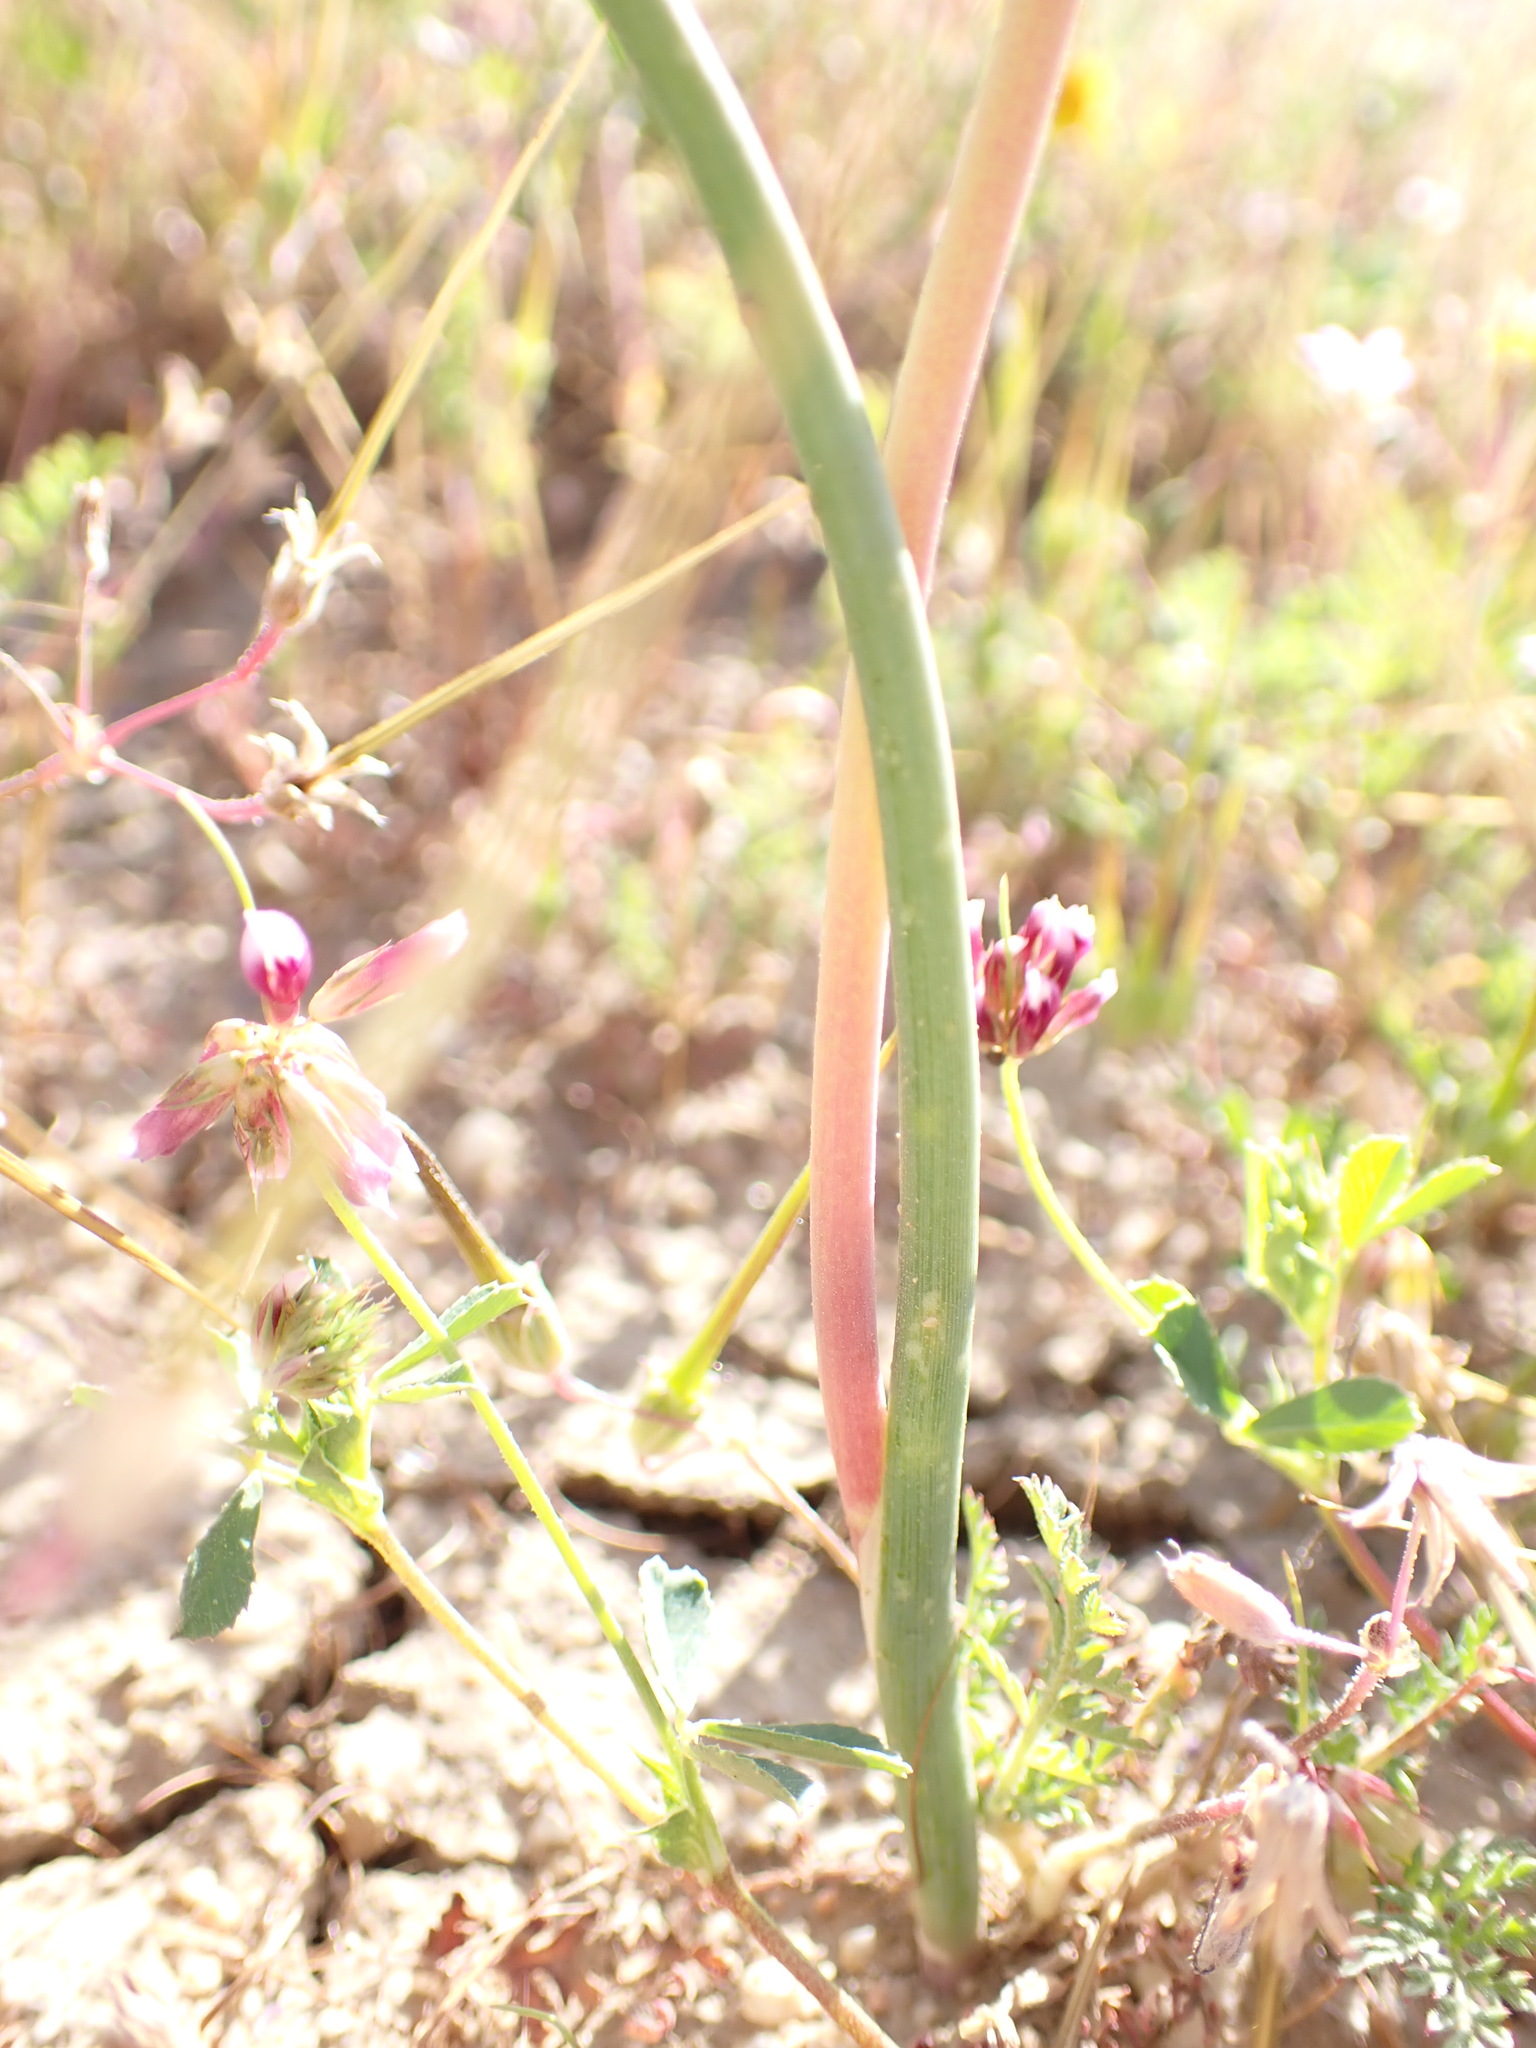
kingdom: Plantae
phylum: Tracheophyta
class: Liliopsida
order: Asparagales
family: Amaryllidaceae
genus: Allium
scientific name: Allium howellii
